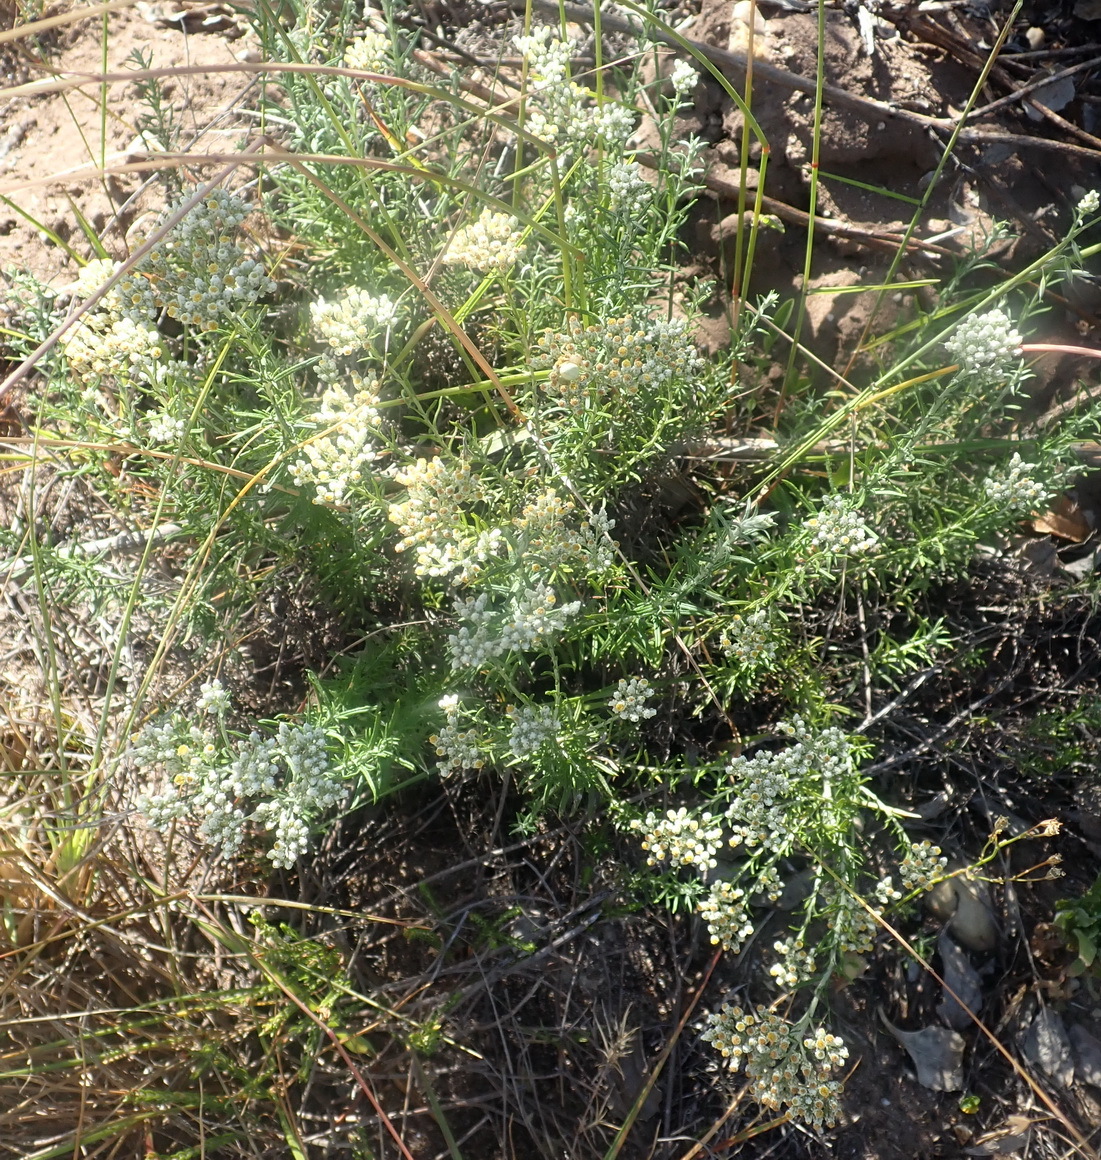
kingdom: Plantae
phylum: Tracheophyta
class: Magnoliopsida
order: Asterales
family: Asteraceae
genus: Helichrysum
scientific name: Helichrysum teretifolium
